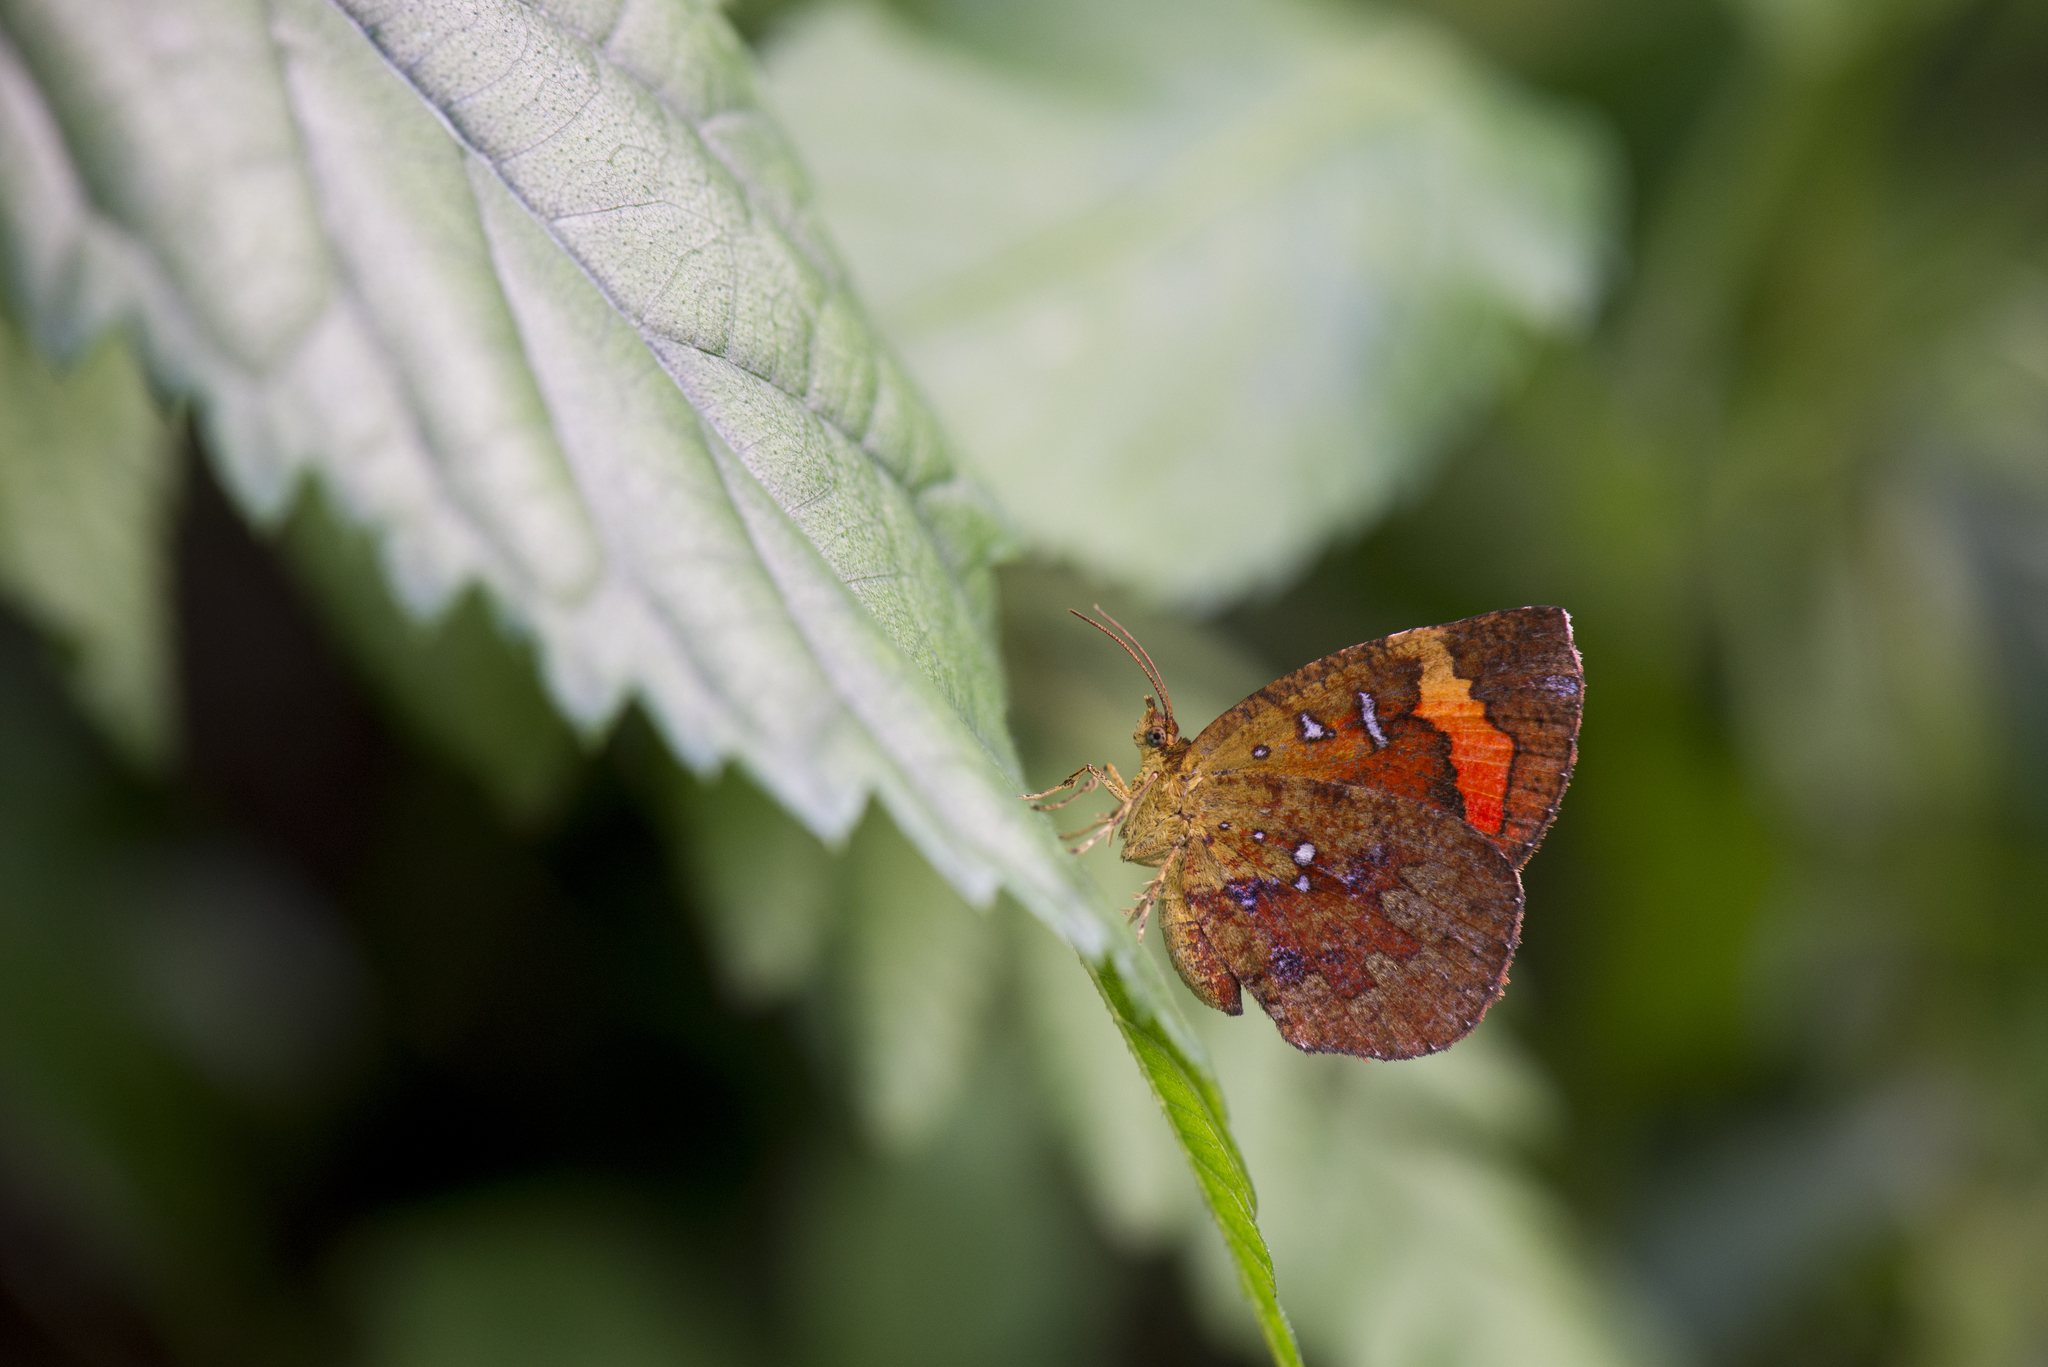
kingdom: Animalia
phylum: Arthropoda
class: Insecta
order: Lepidoptera
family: Callidulidae
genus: Petavia
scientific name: Petavia attenuata
